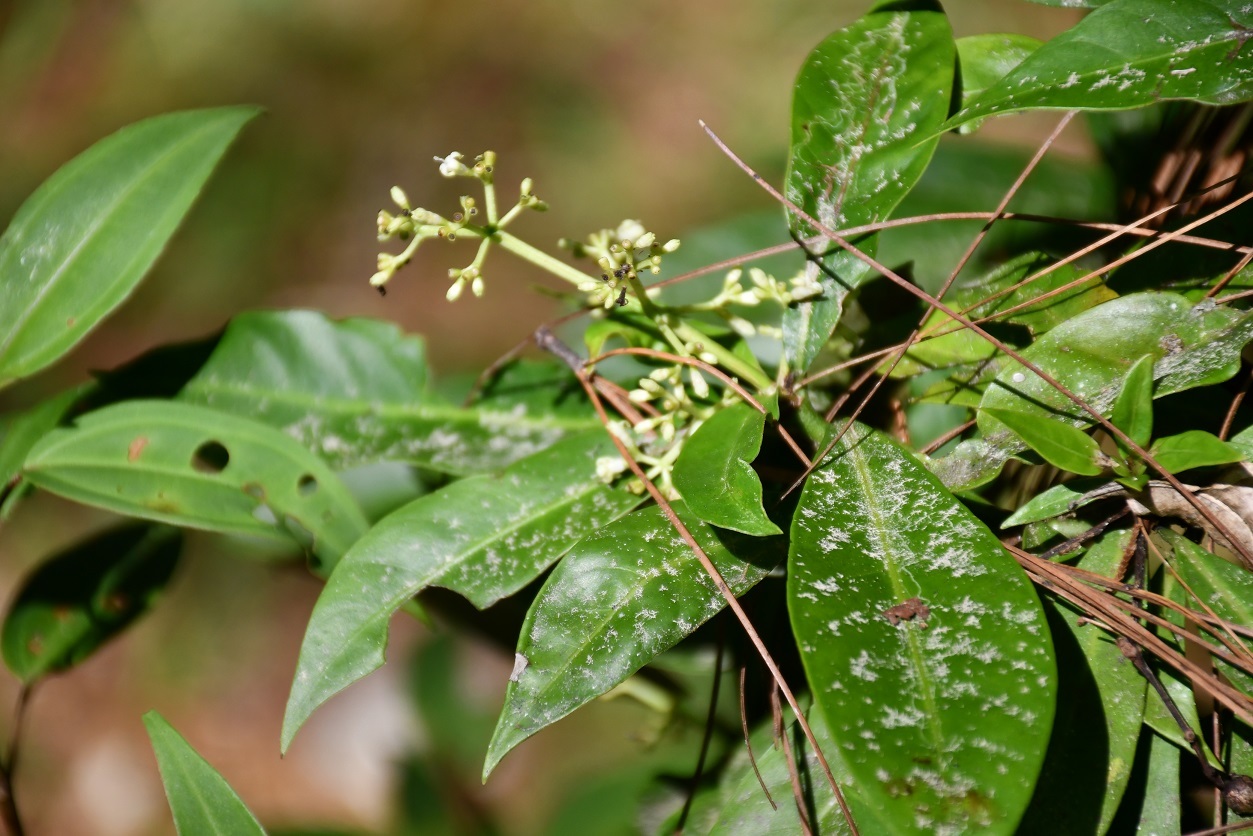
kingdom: Plantae
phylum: Tracheophyta
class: Magnoliopsida
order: Gentianales
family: Rubiaceae
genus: Psychotria
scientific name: Psychotria costivenia
